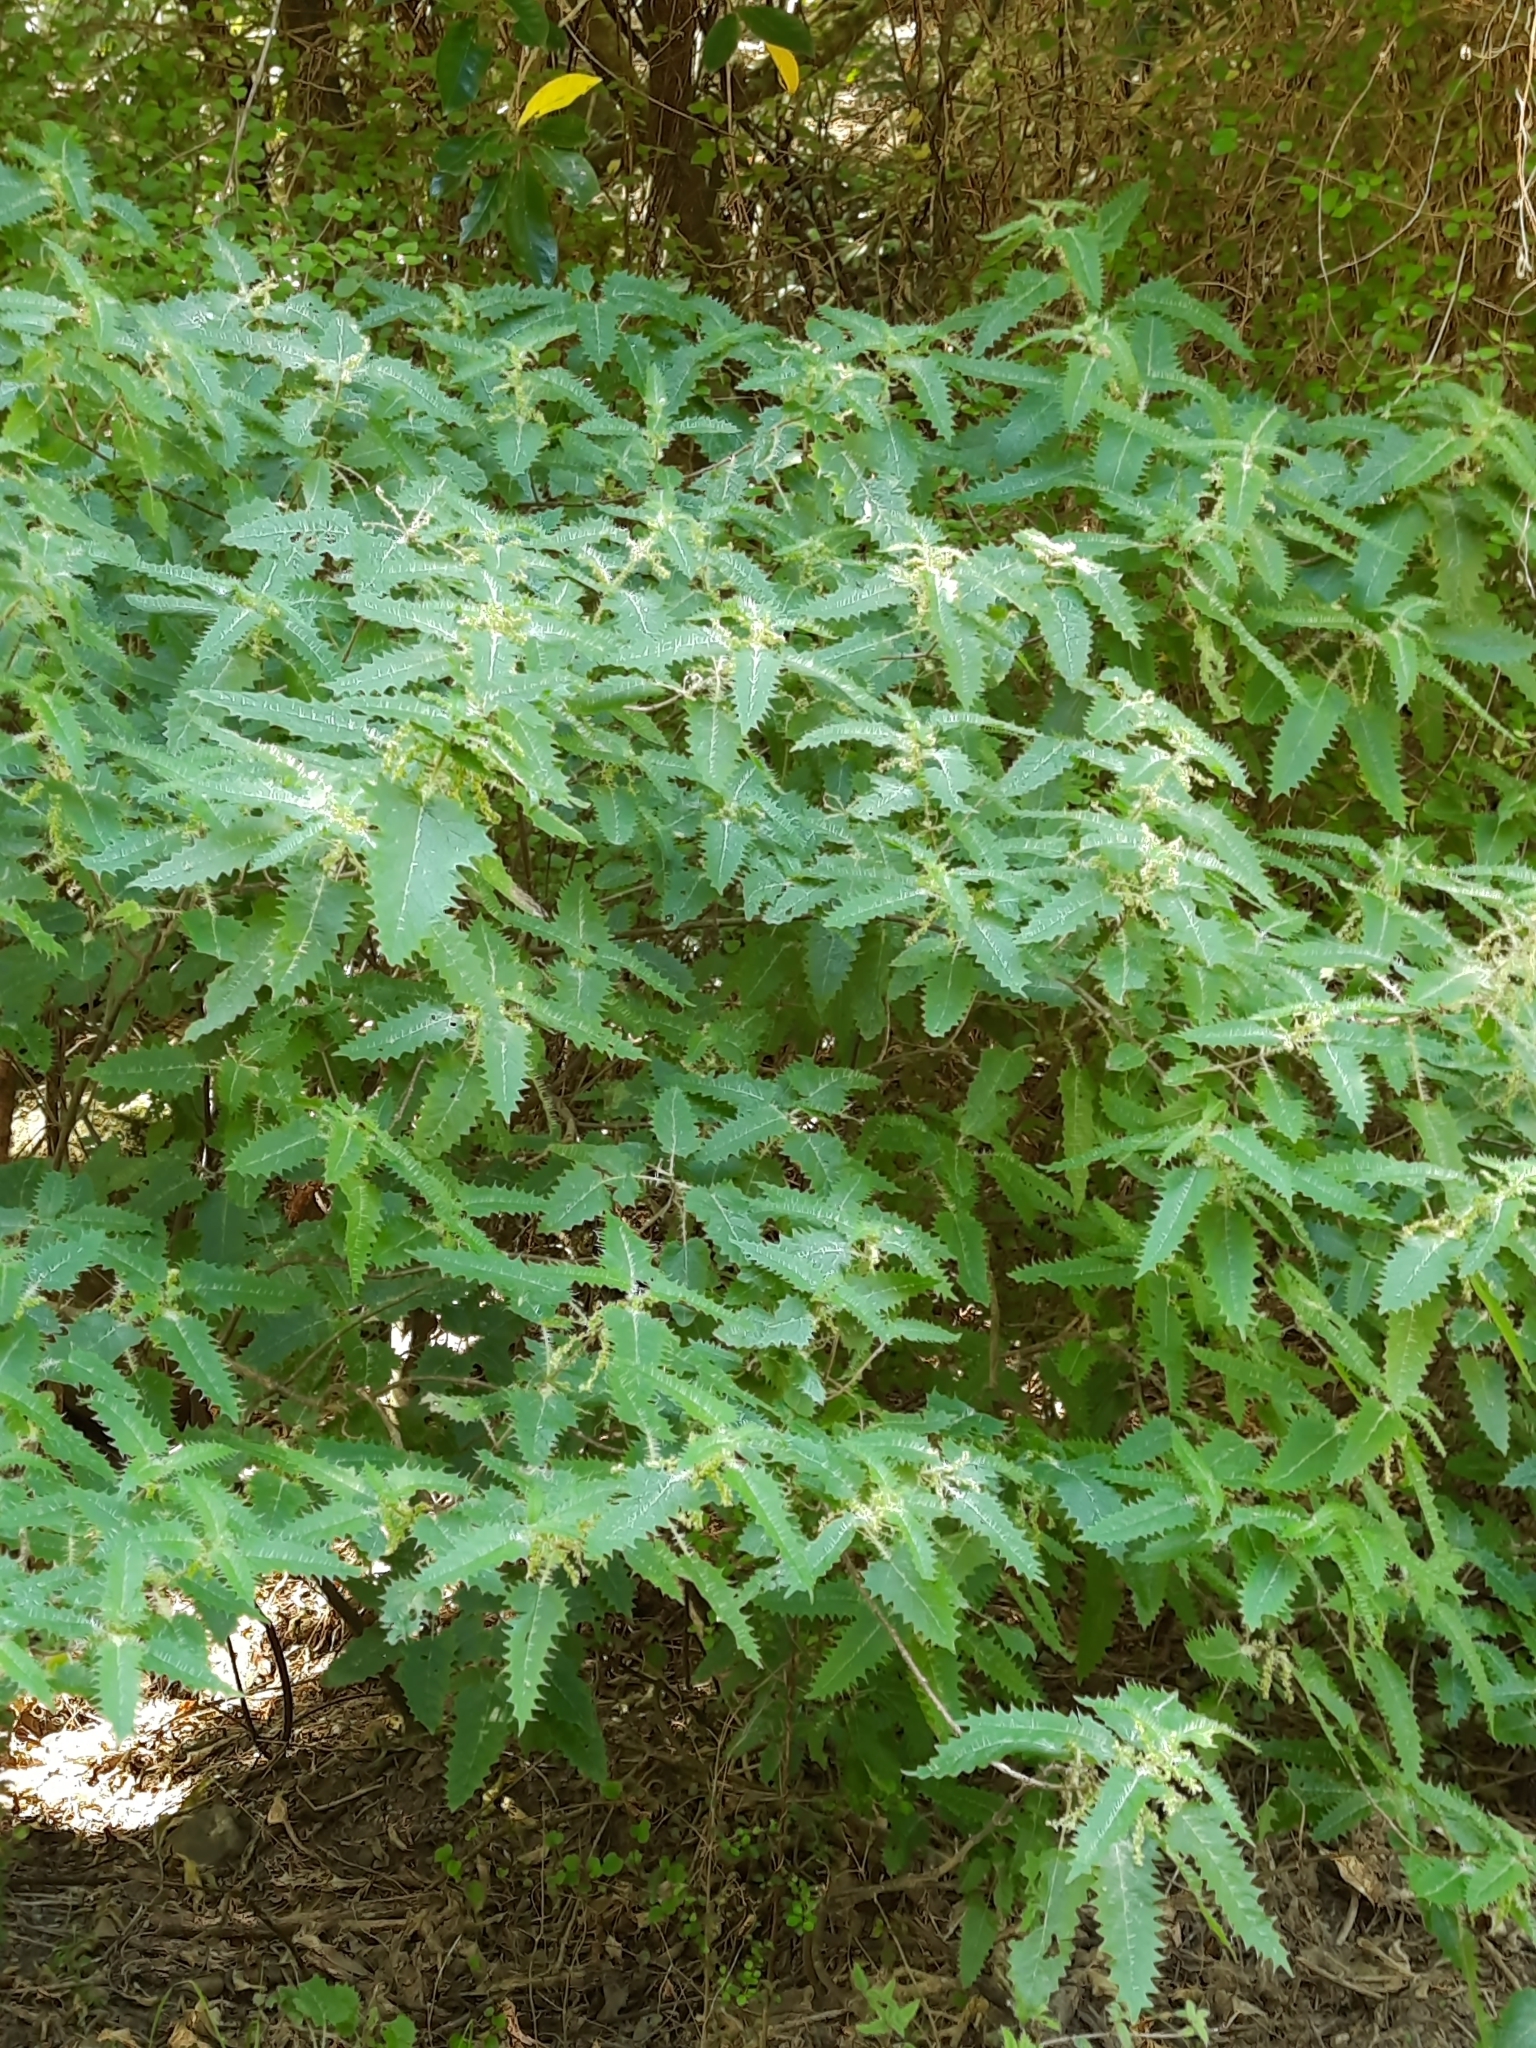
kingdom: Plantae
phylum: Tracheophyta
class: Magnoliopsida
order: Rosales
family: Urticaceae
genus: Urtica
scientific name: Urtica ferox
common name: Tree nettle
